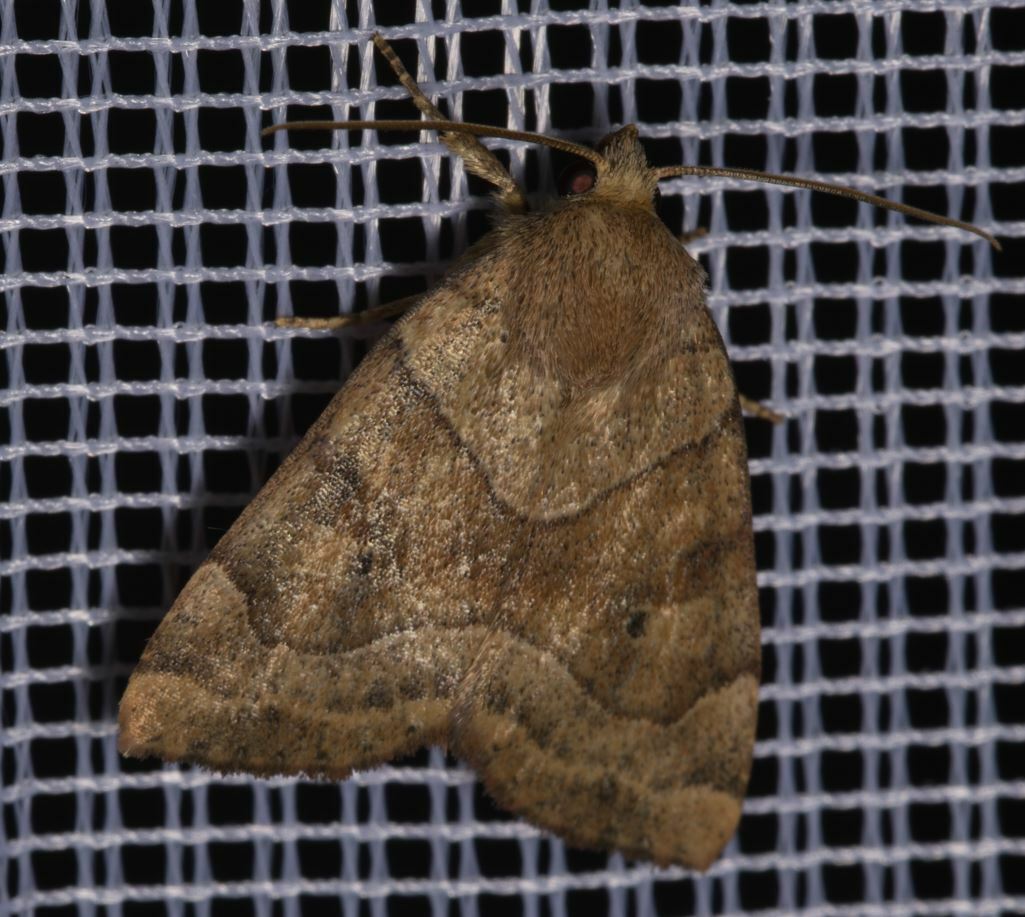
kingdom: Animalia
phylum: Arthropoda
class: Insecta
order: Lepidoptera
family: Noctuidae
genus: Cosmia
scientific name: Cosmia trapezina
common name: Dun-bar
